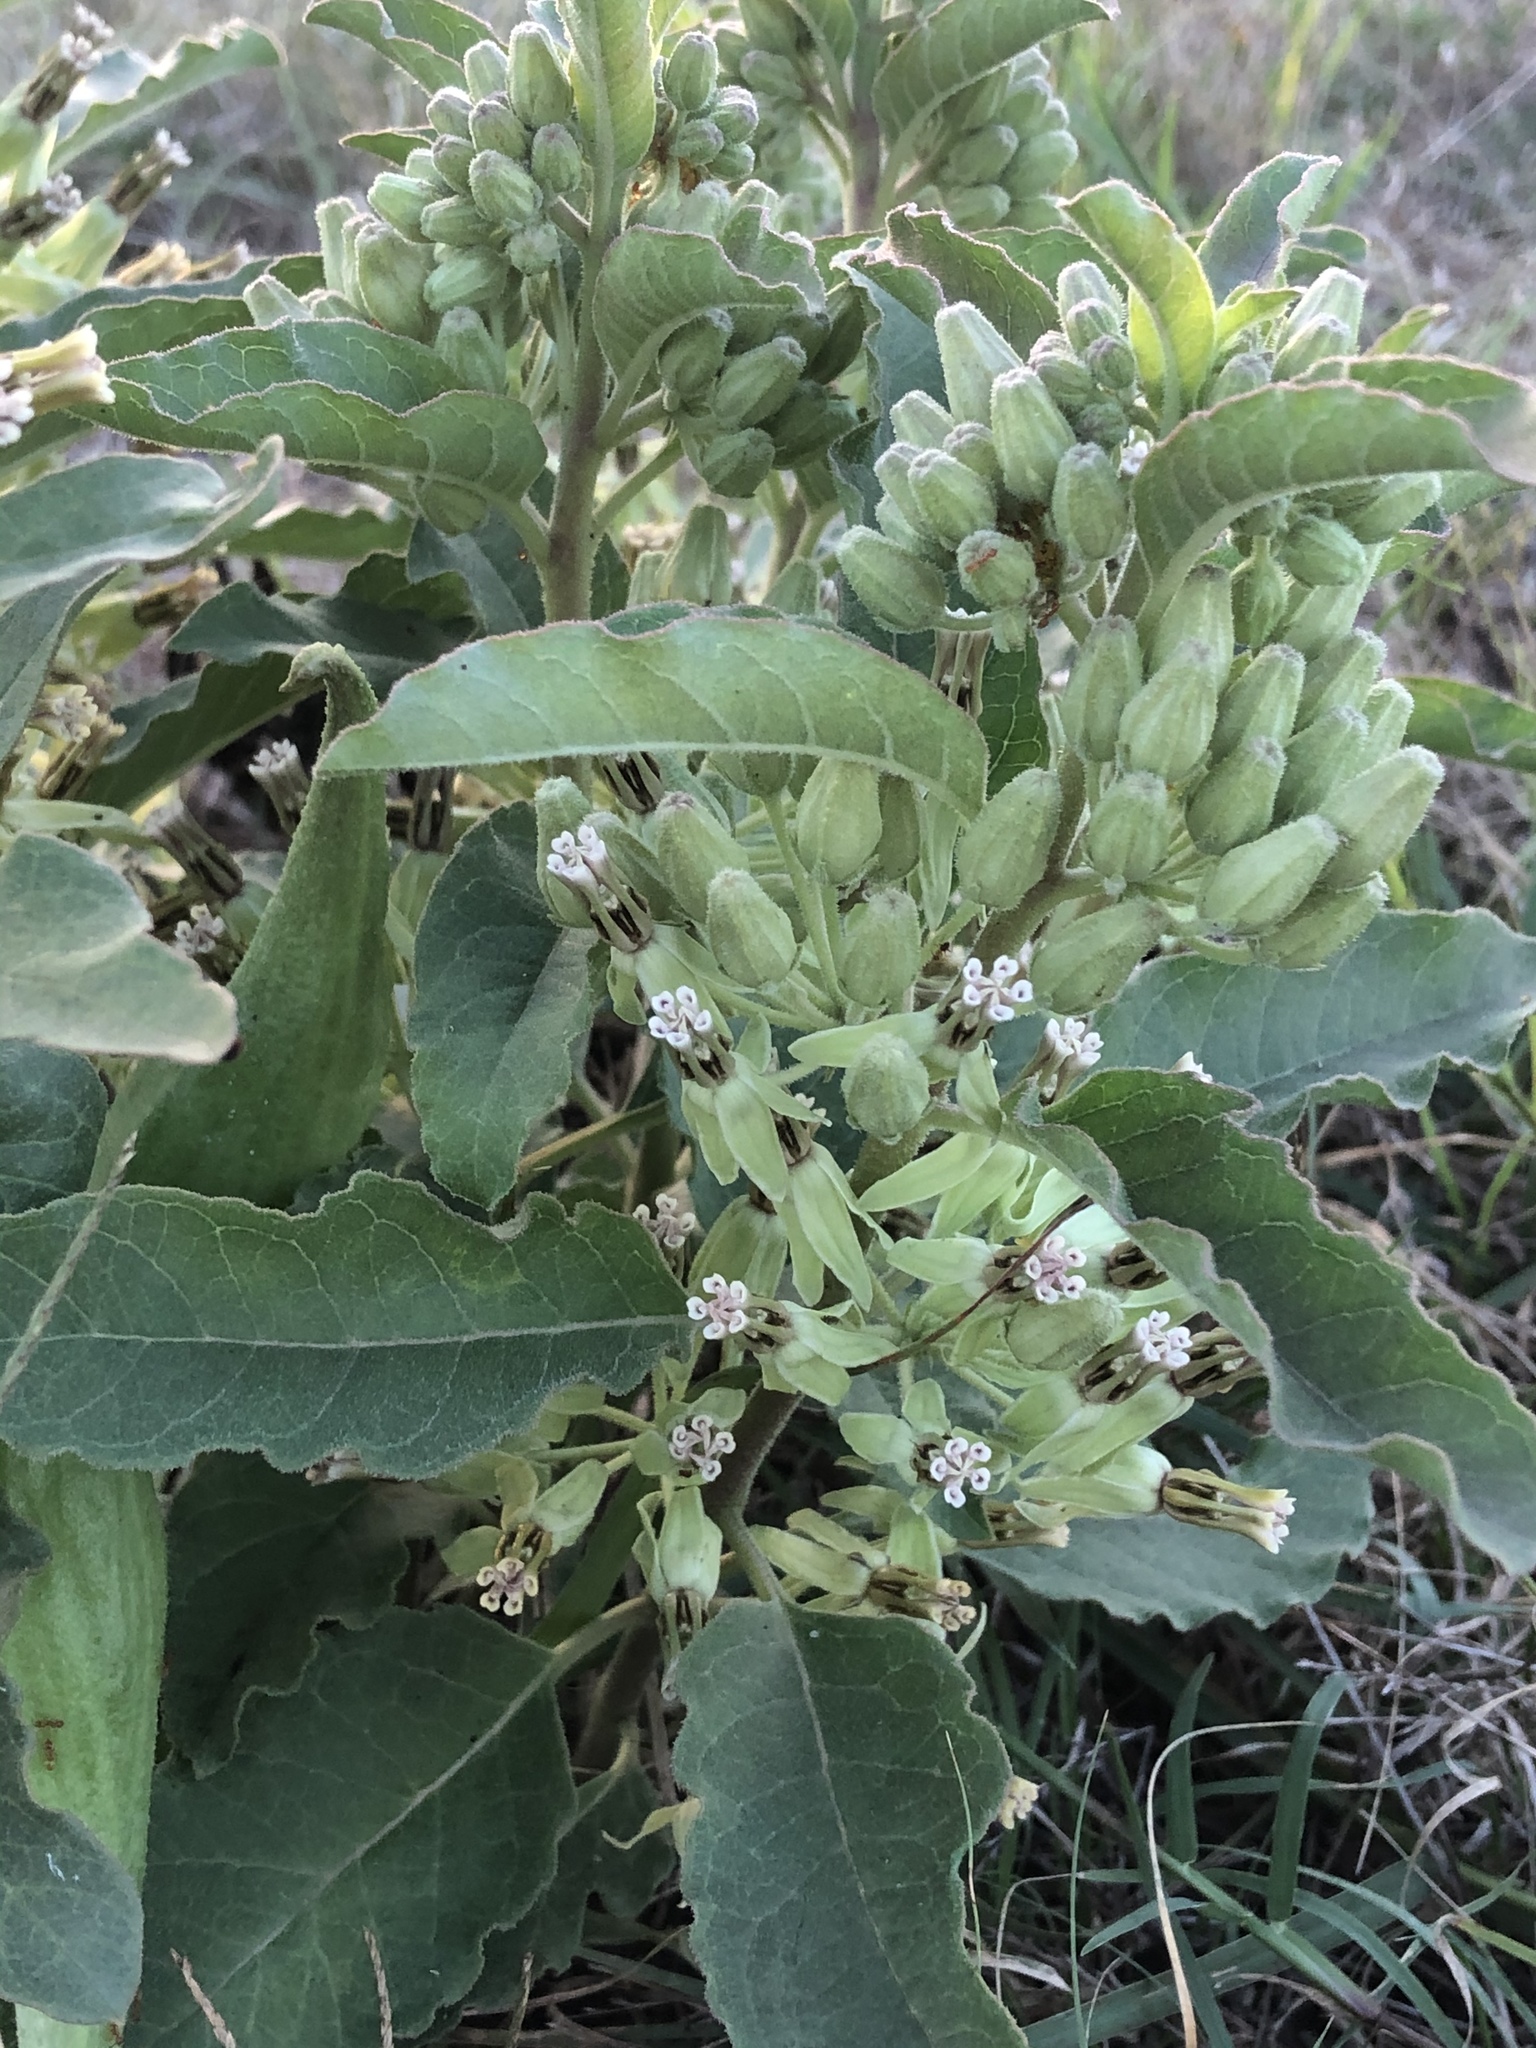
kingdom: Plantae
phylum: Tracheophyta
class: Magnoliopsida
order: Gentianales
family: Apocynaceae
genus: Asclepias
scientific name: Asclepias oenotheroides
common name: Zizotes milkweed
